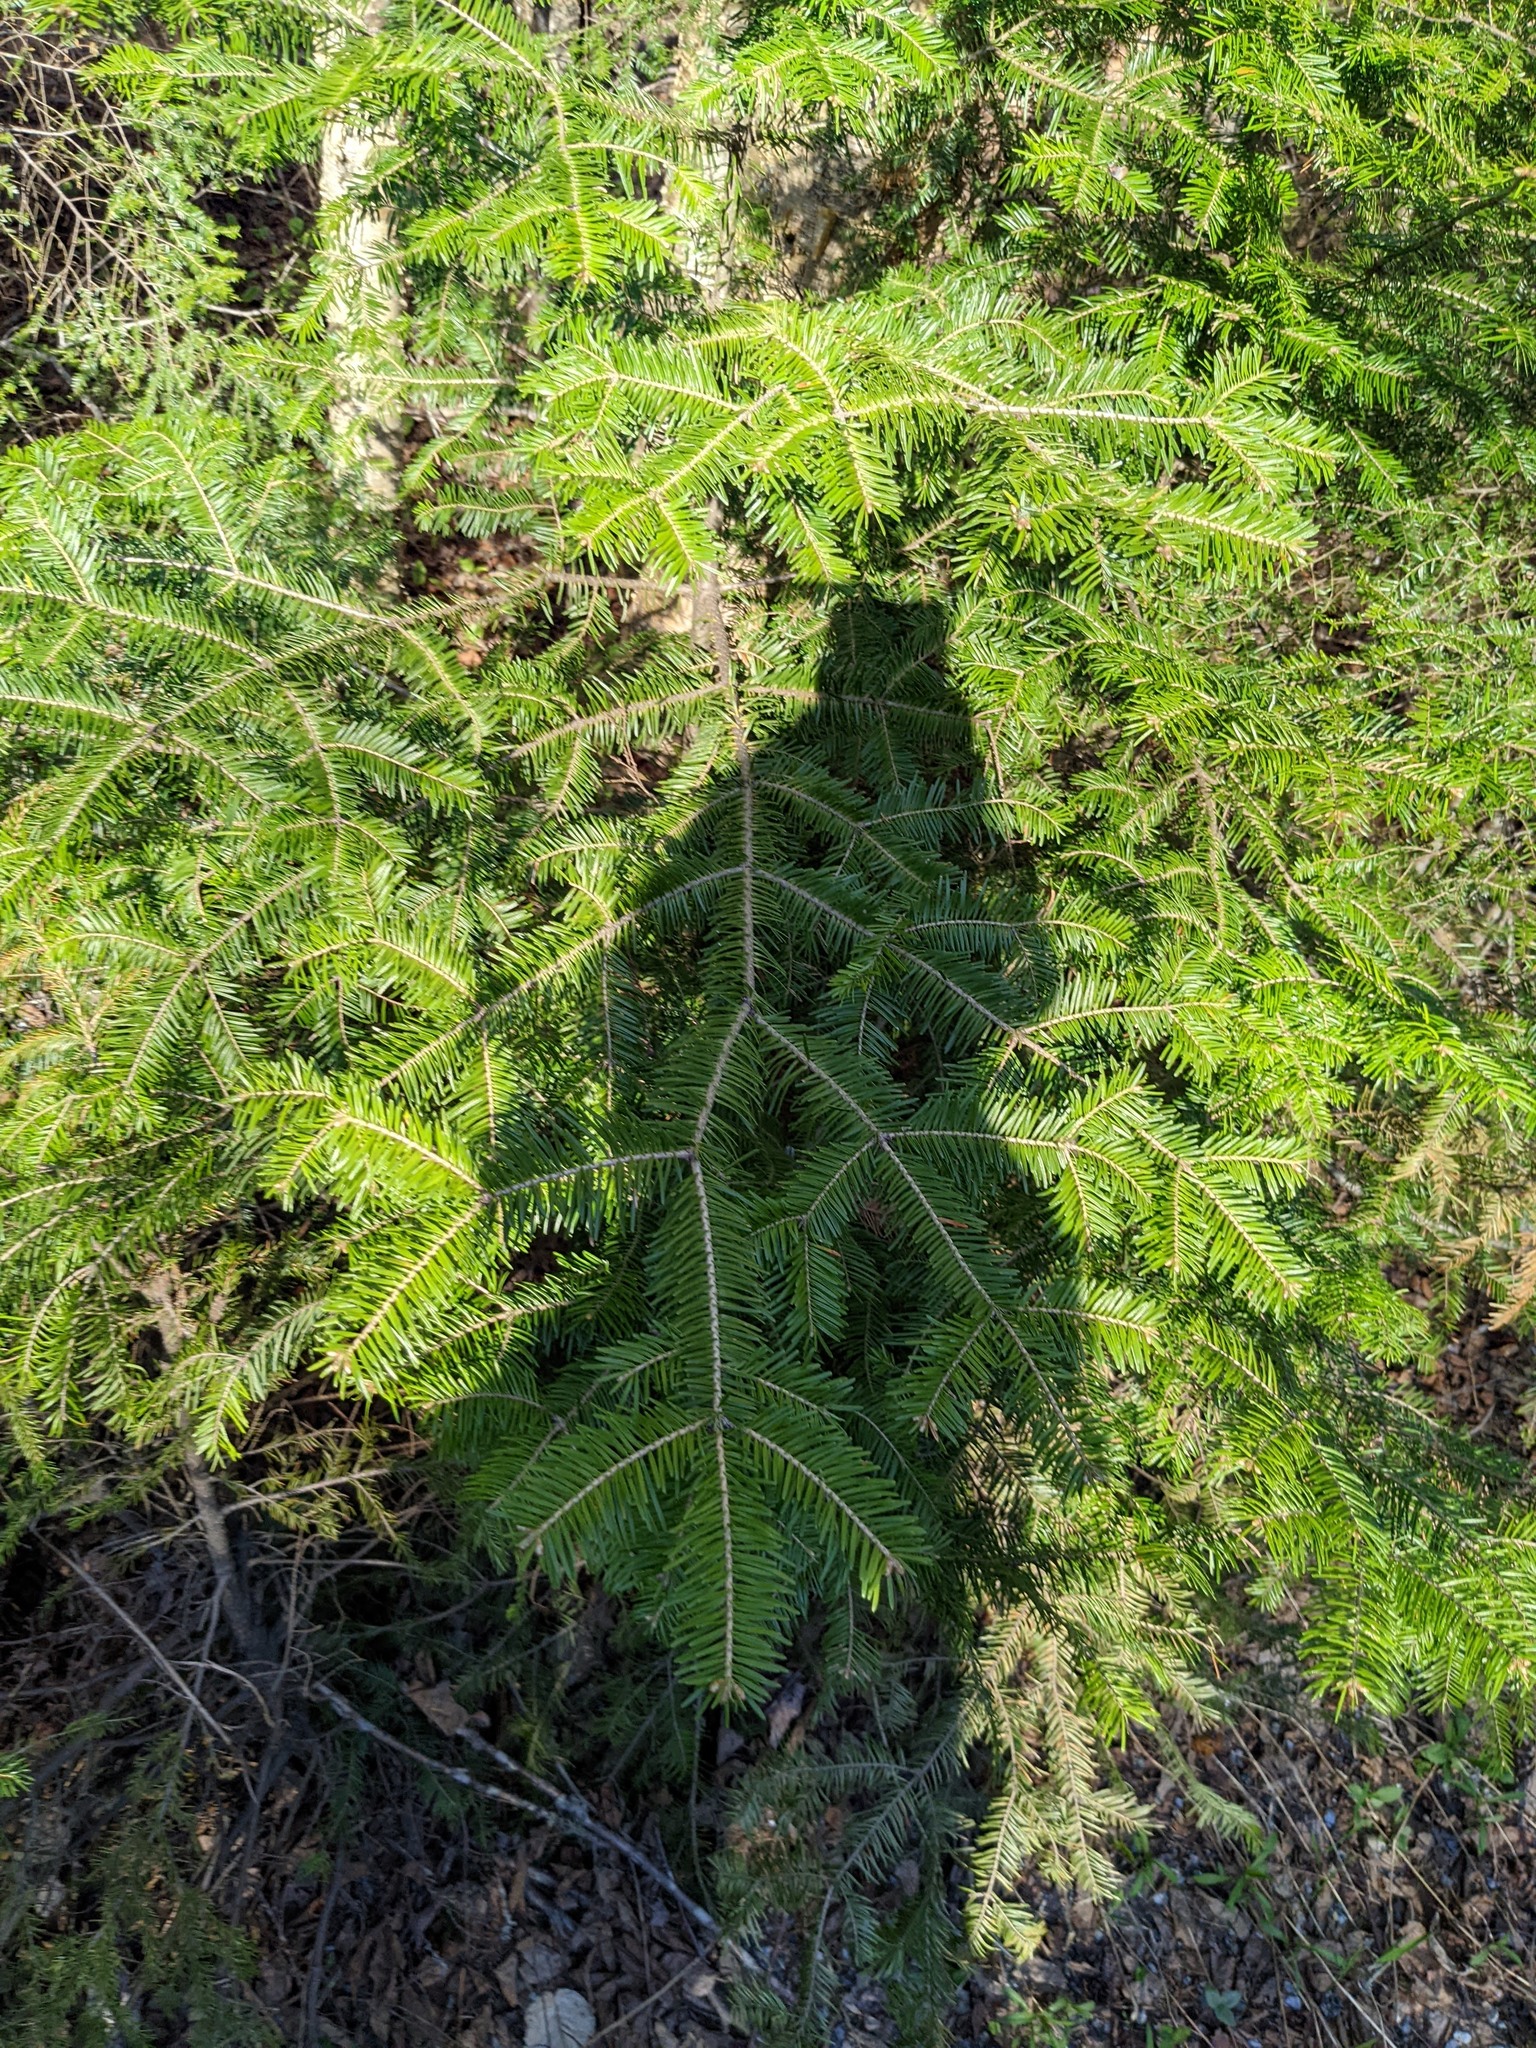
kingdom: Plantae
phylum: Tracheophyta
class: Pinopsida
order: Pinales
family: Pinaceae
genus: Abies
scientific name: Abies balsamea
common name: Balsam fir
